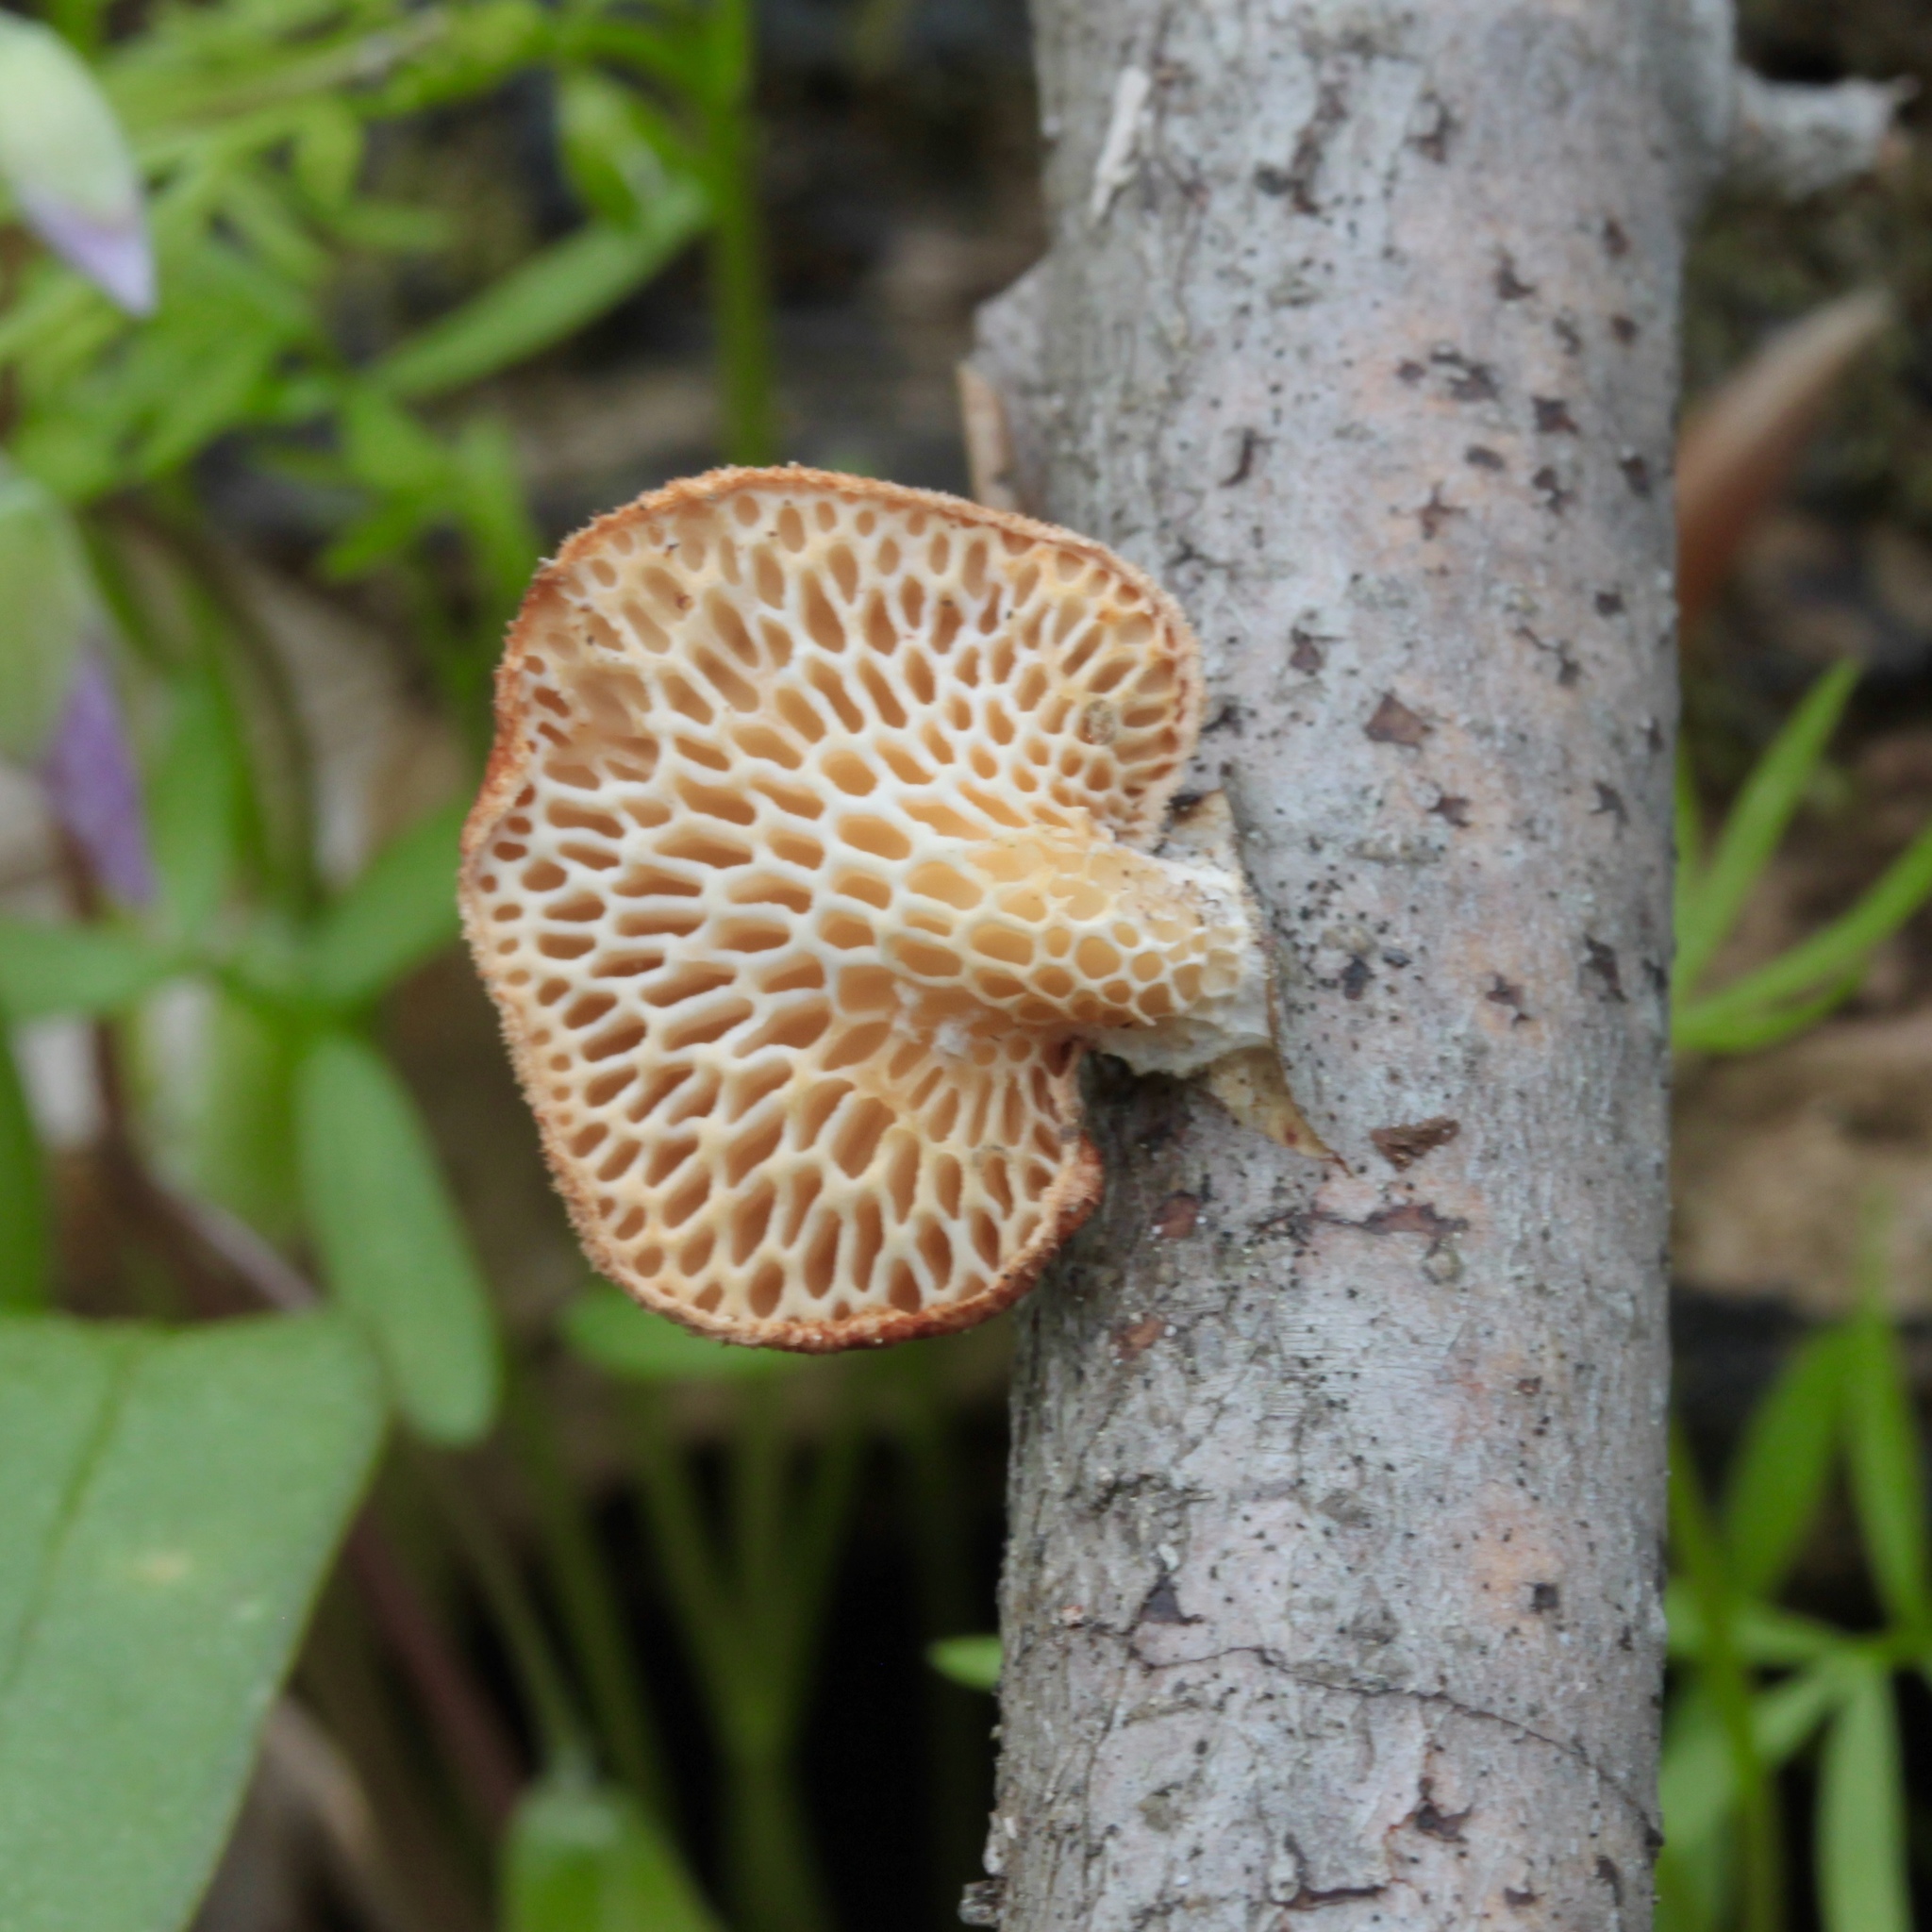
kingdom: Fungi
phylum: Basidiomycota
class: Agaricomycetes
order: Polyporales
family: Polyporaceae
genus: Neofavolus
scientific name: Neofavolus alveolaris
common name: Hexagonal-pored polypore
